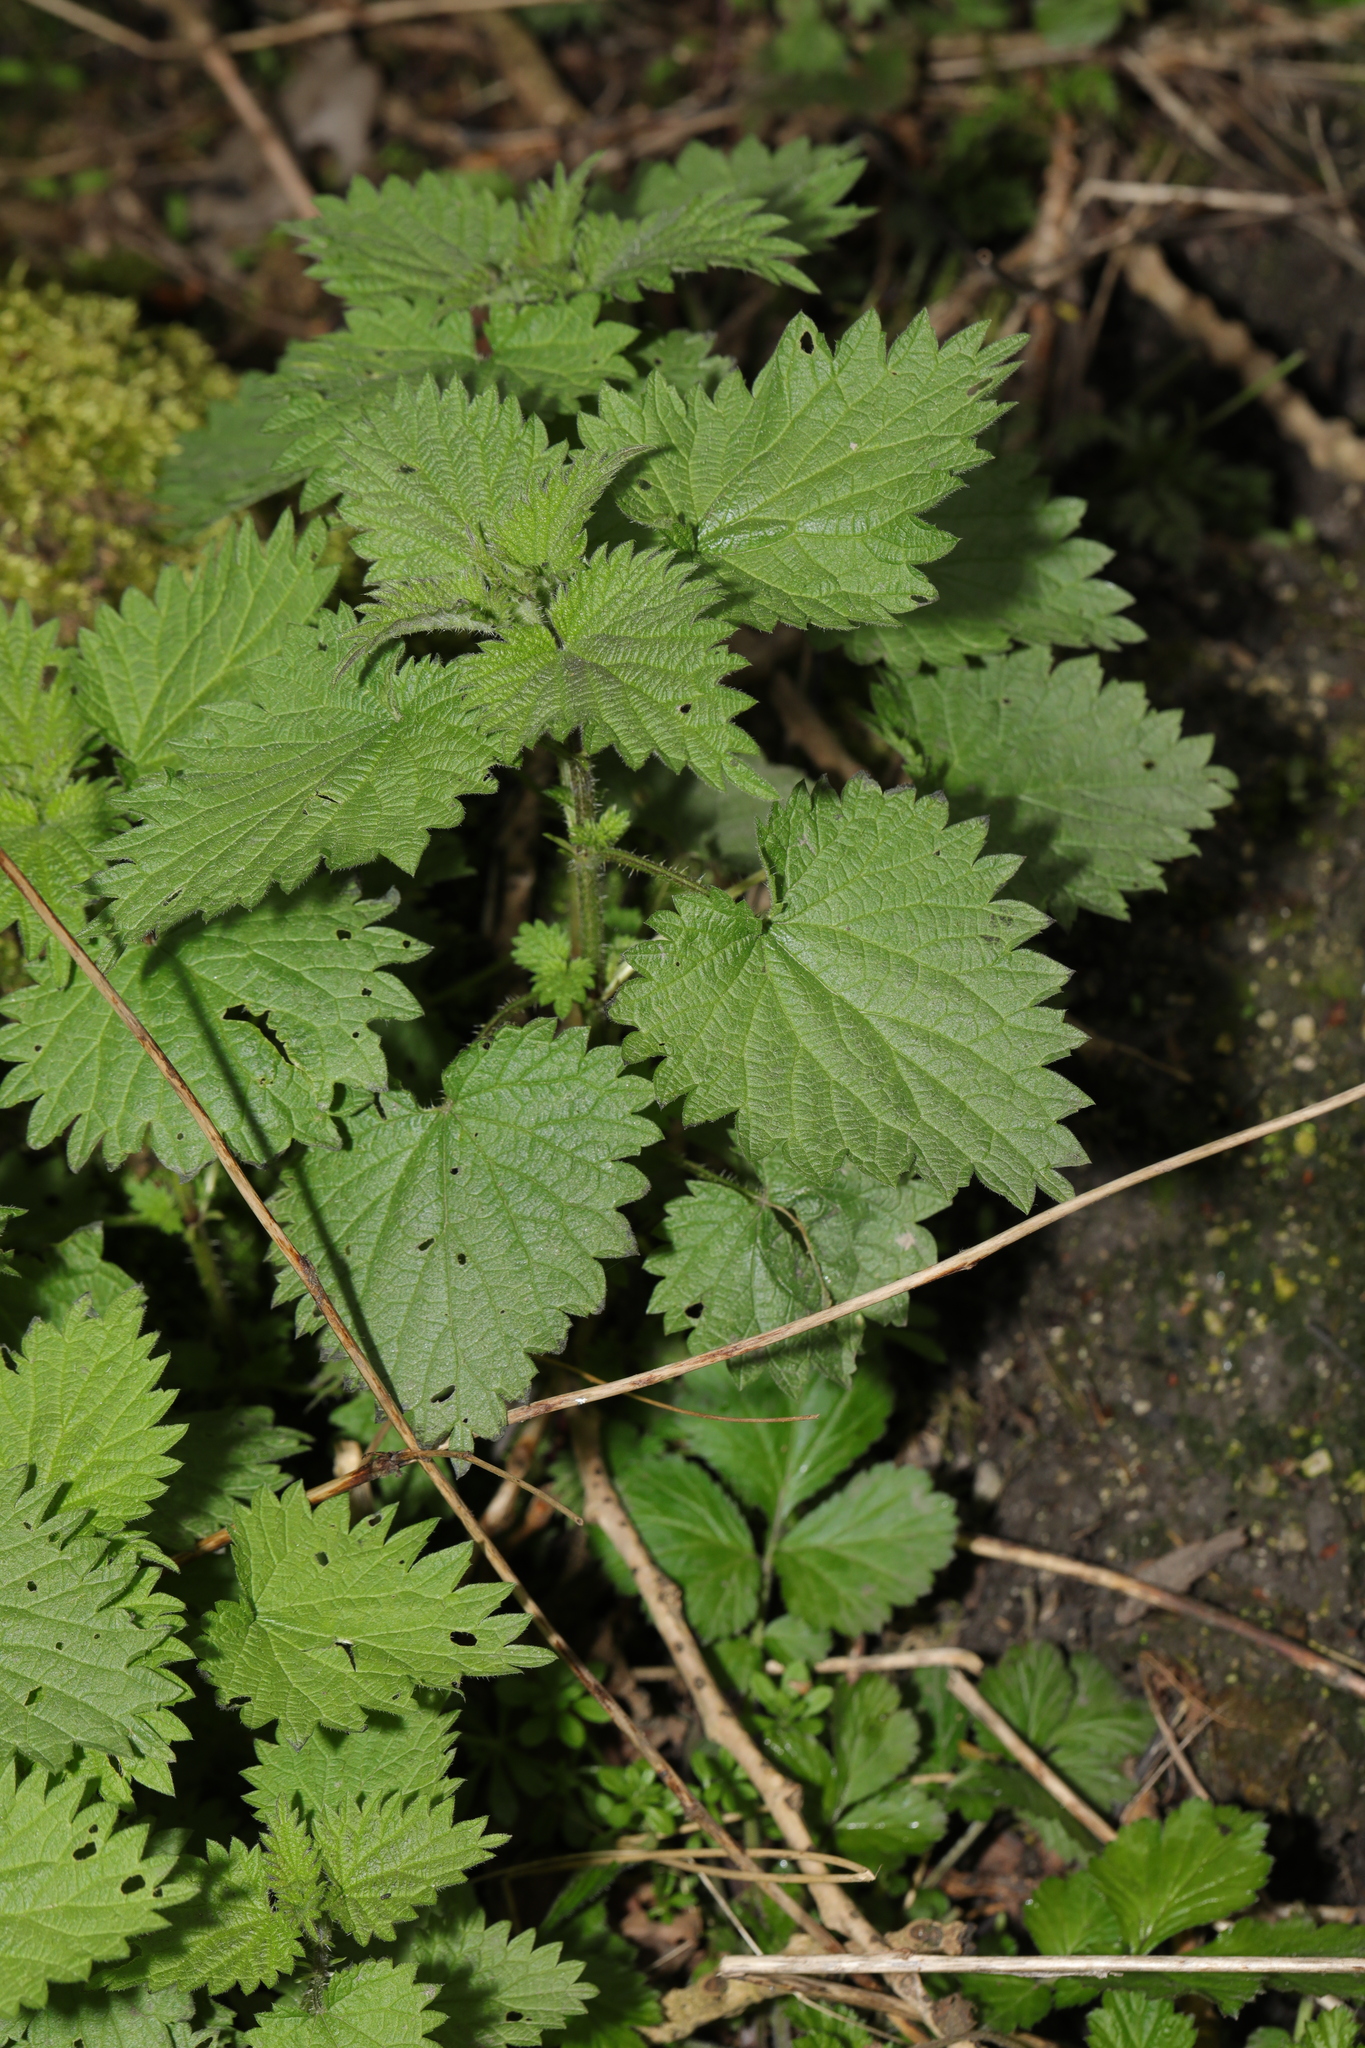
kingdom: Plantae
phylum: Tracheophyta
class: Magnoliopsida
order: Rosales
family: Urticaceae
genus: Urtica
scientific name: Urtica dioica
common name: Common nettle
